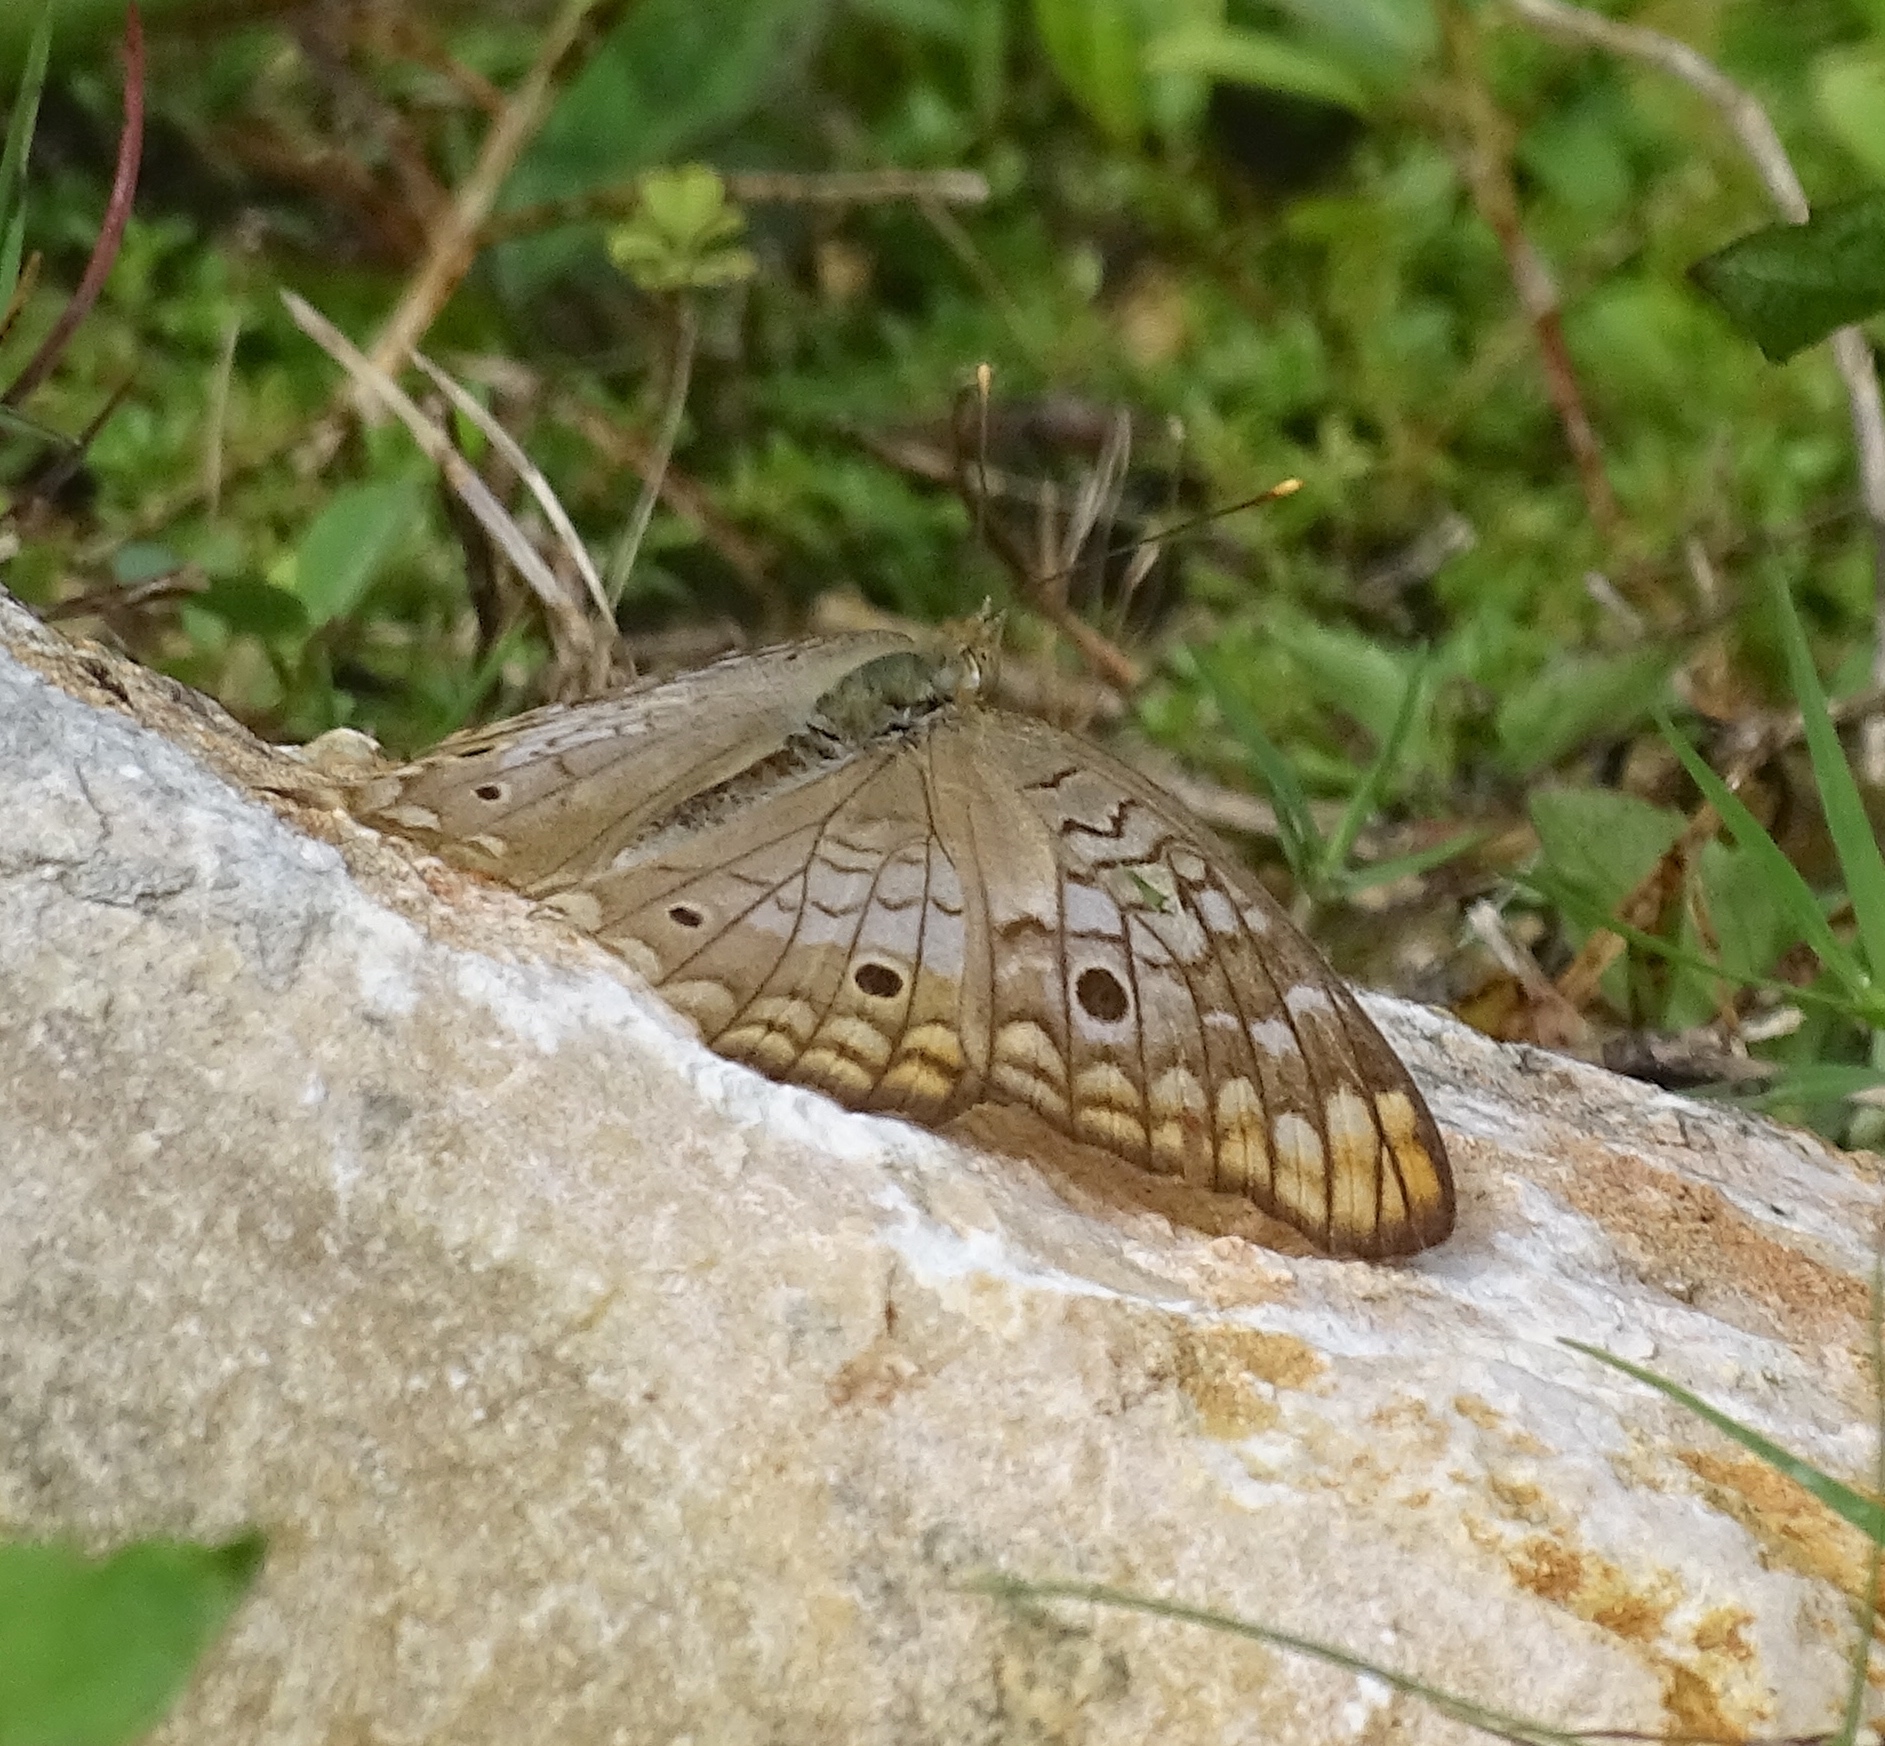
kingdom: Animalia
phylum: Arthropoda
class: Insecta
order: Lepidoptera
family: Nymphalidae
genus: Anartia
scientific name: Anartia jatrophae
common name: White peacock
